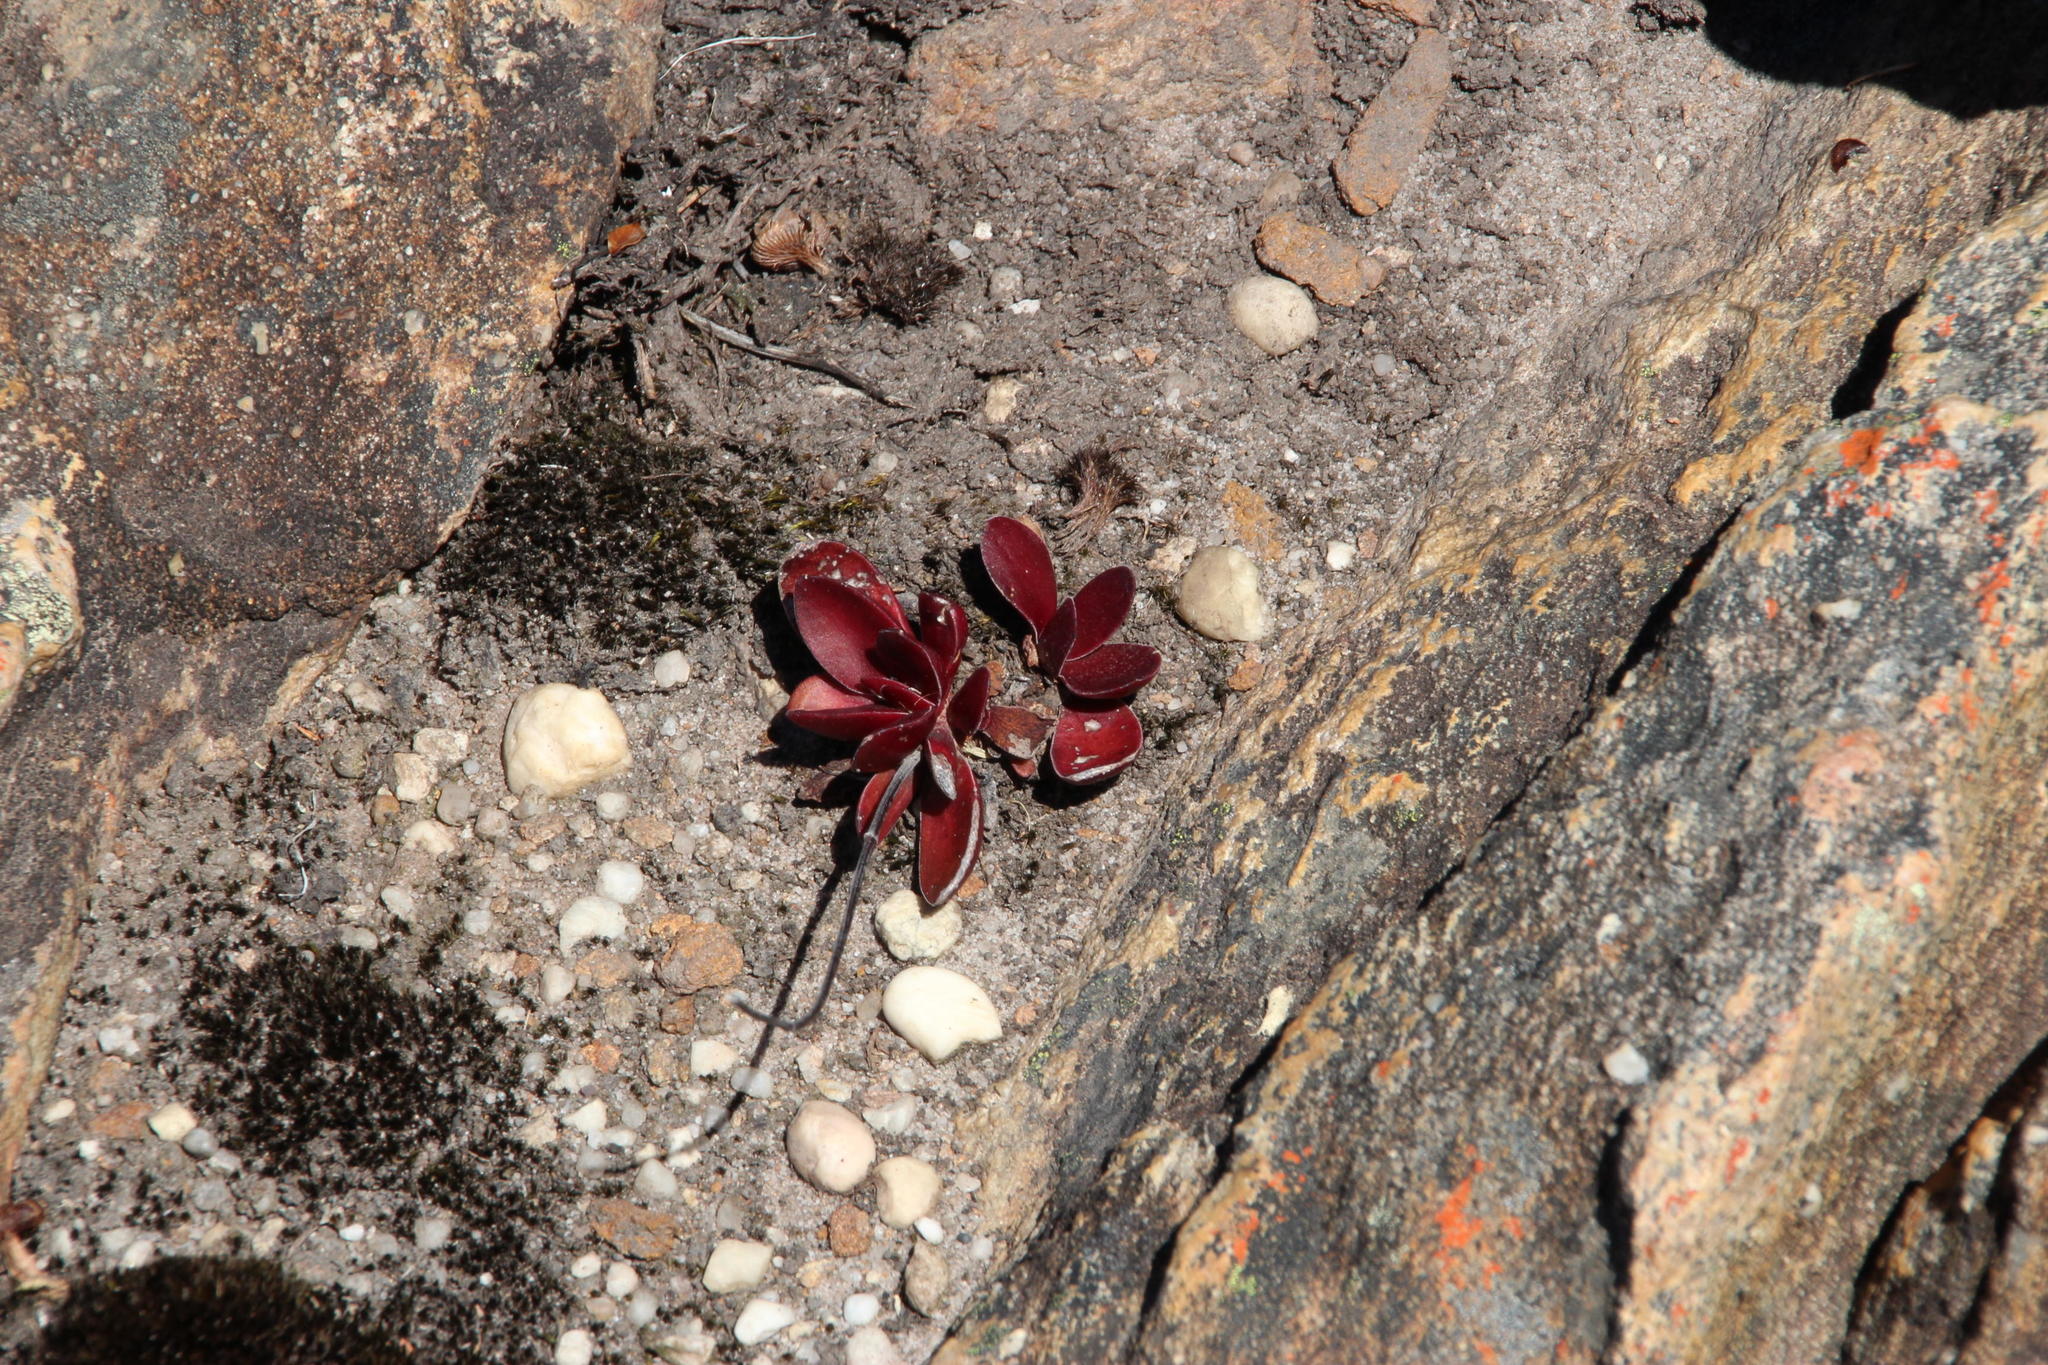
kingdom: Plantae
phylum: Tracheophyta
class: Magnoliopsida
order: Saxifragales
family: Crassulaceae
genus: Crassula
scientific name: Crassula nudicaulis
